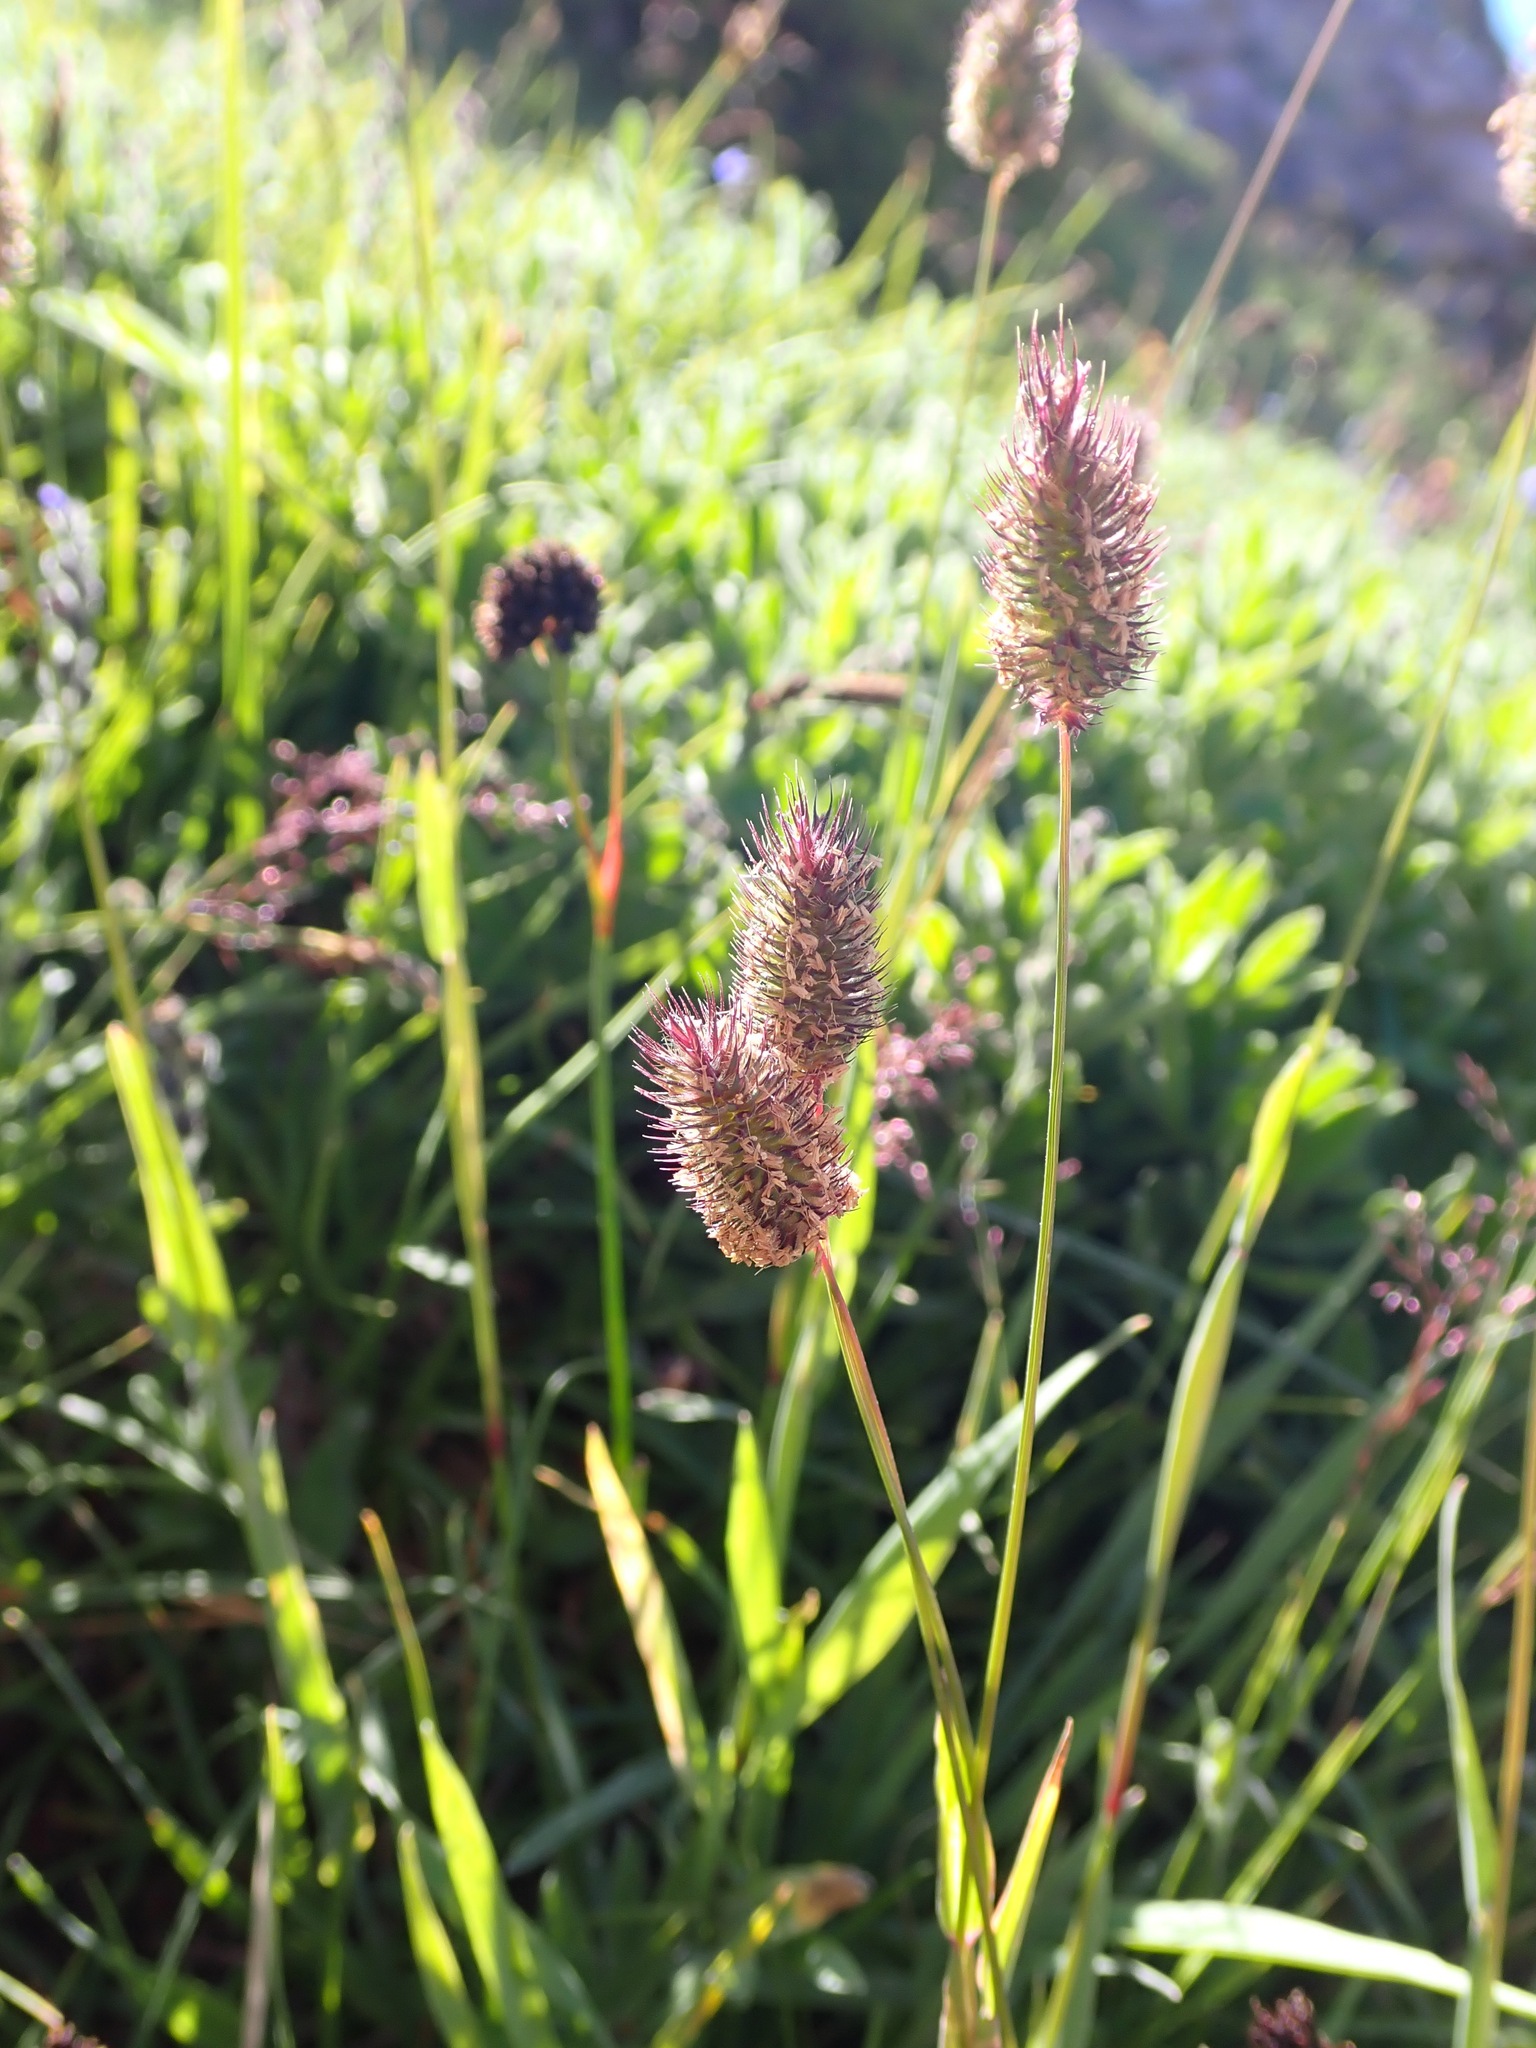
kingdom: Plantae
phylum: Tracheophyta
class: Liliopsida
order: Poales
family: Poaceae
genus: Phleum
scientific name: Phleum alpinum
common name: Alpine cat's-tail
